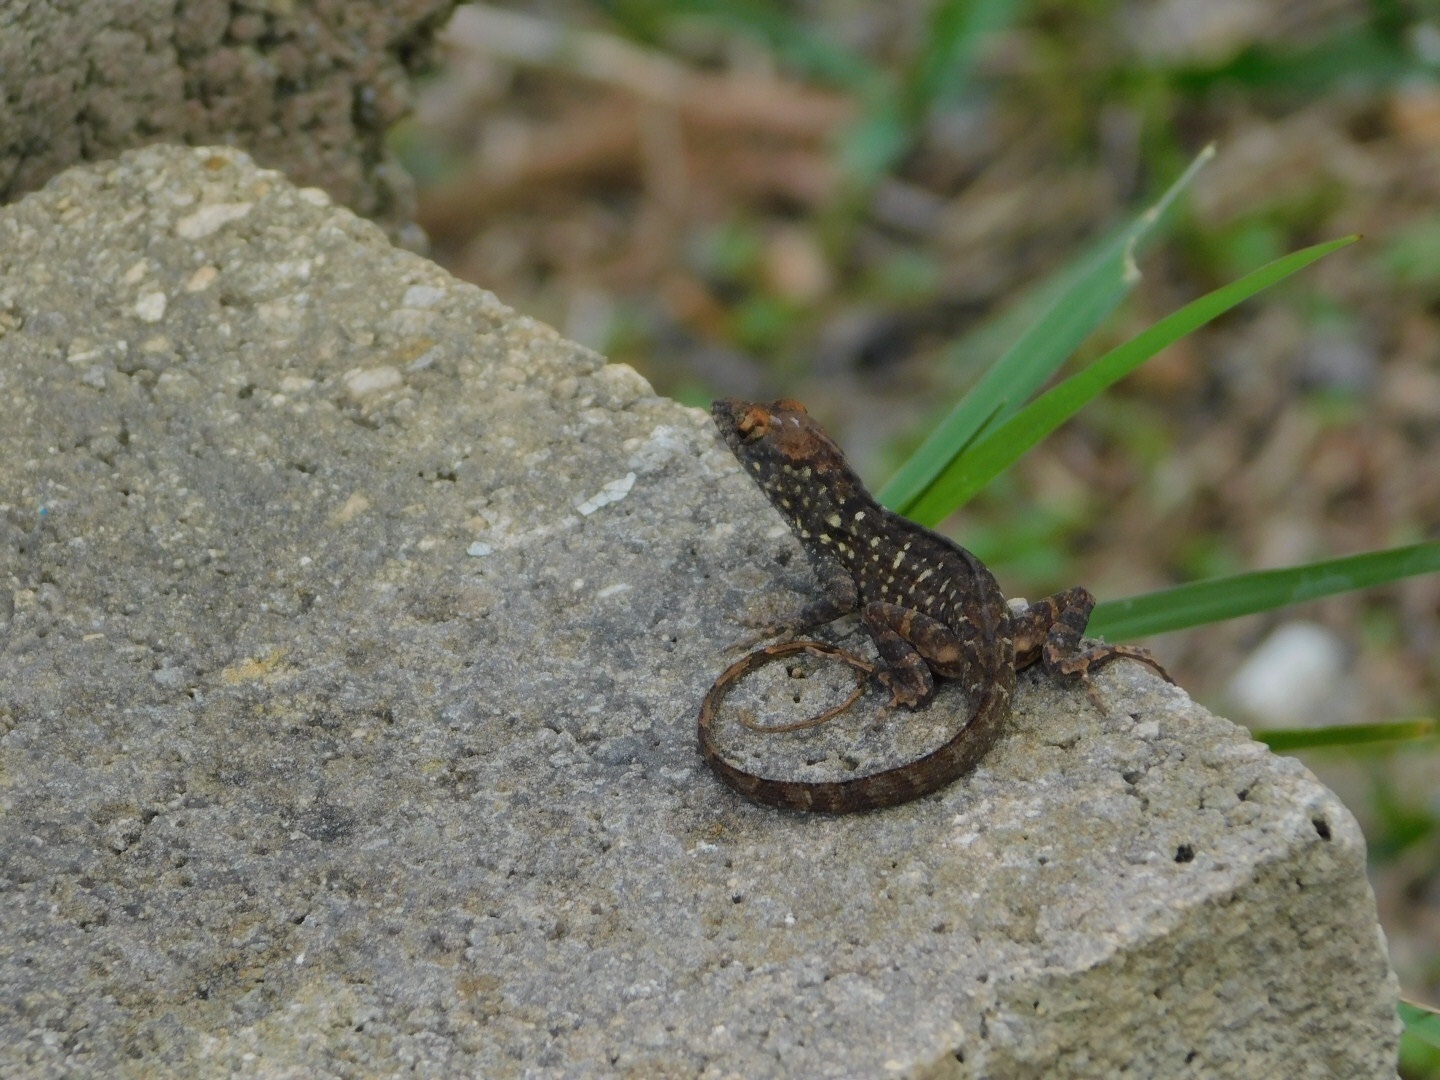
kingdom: Animalia
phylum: Chordata
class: Squamata
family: Dactyloidae
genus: Anolis
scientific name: Anolis sagrei
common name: Brown anole
